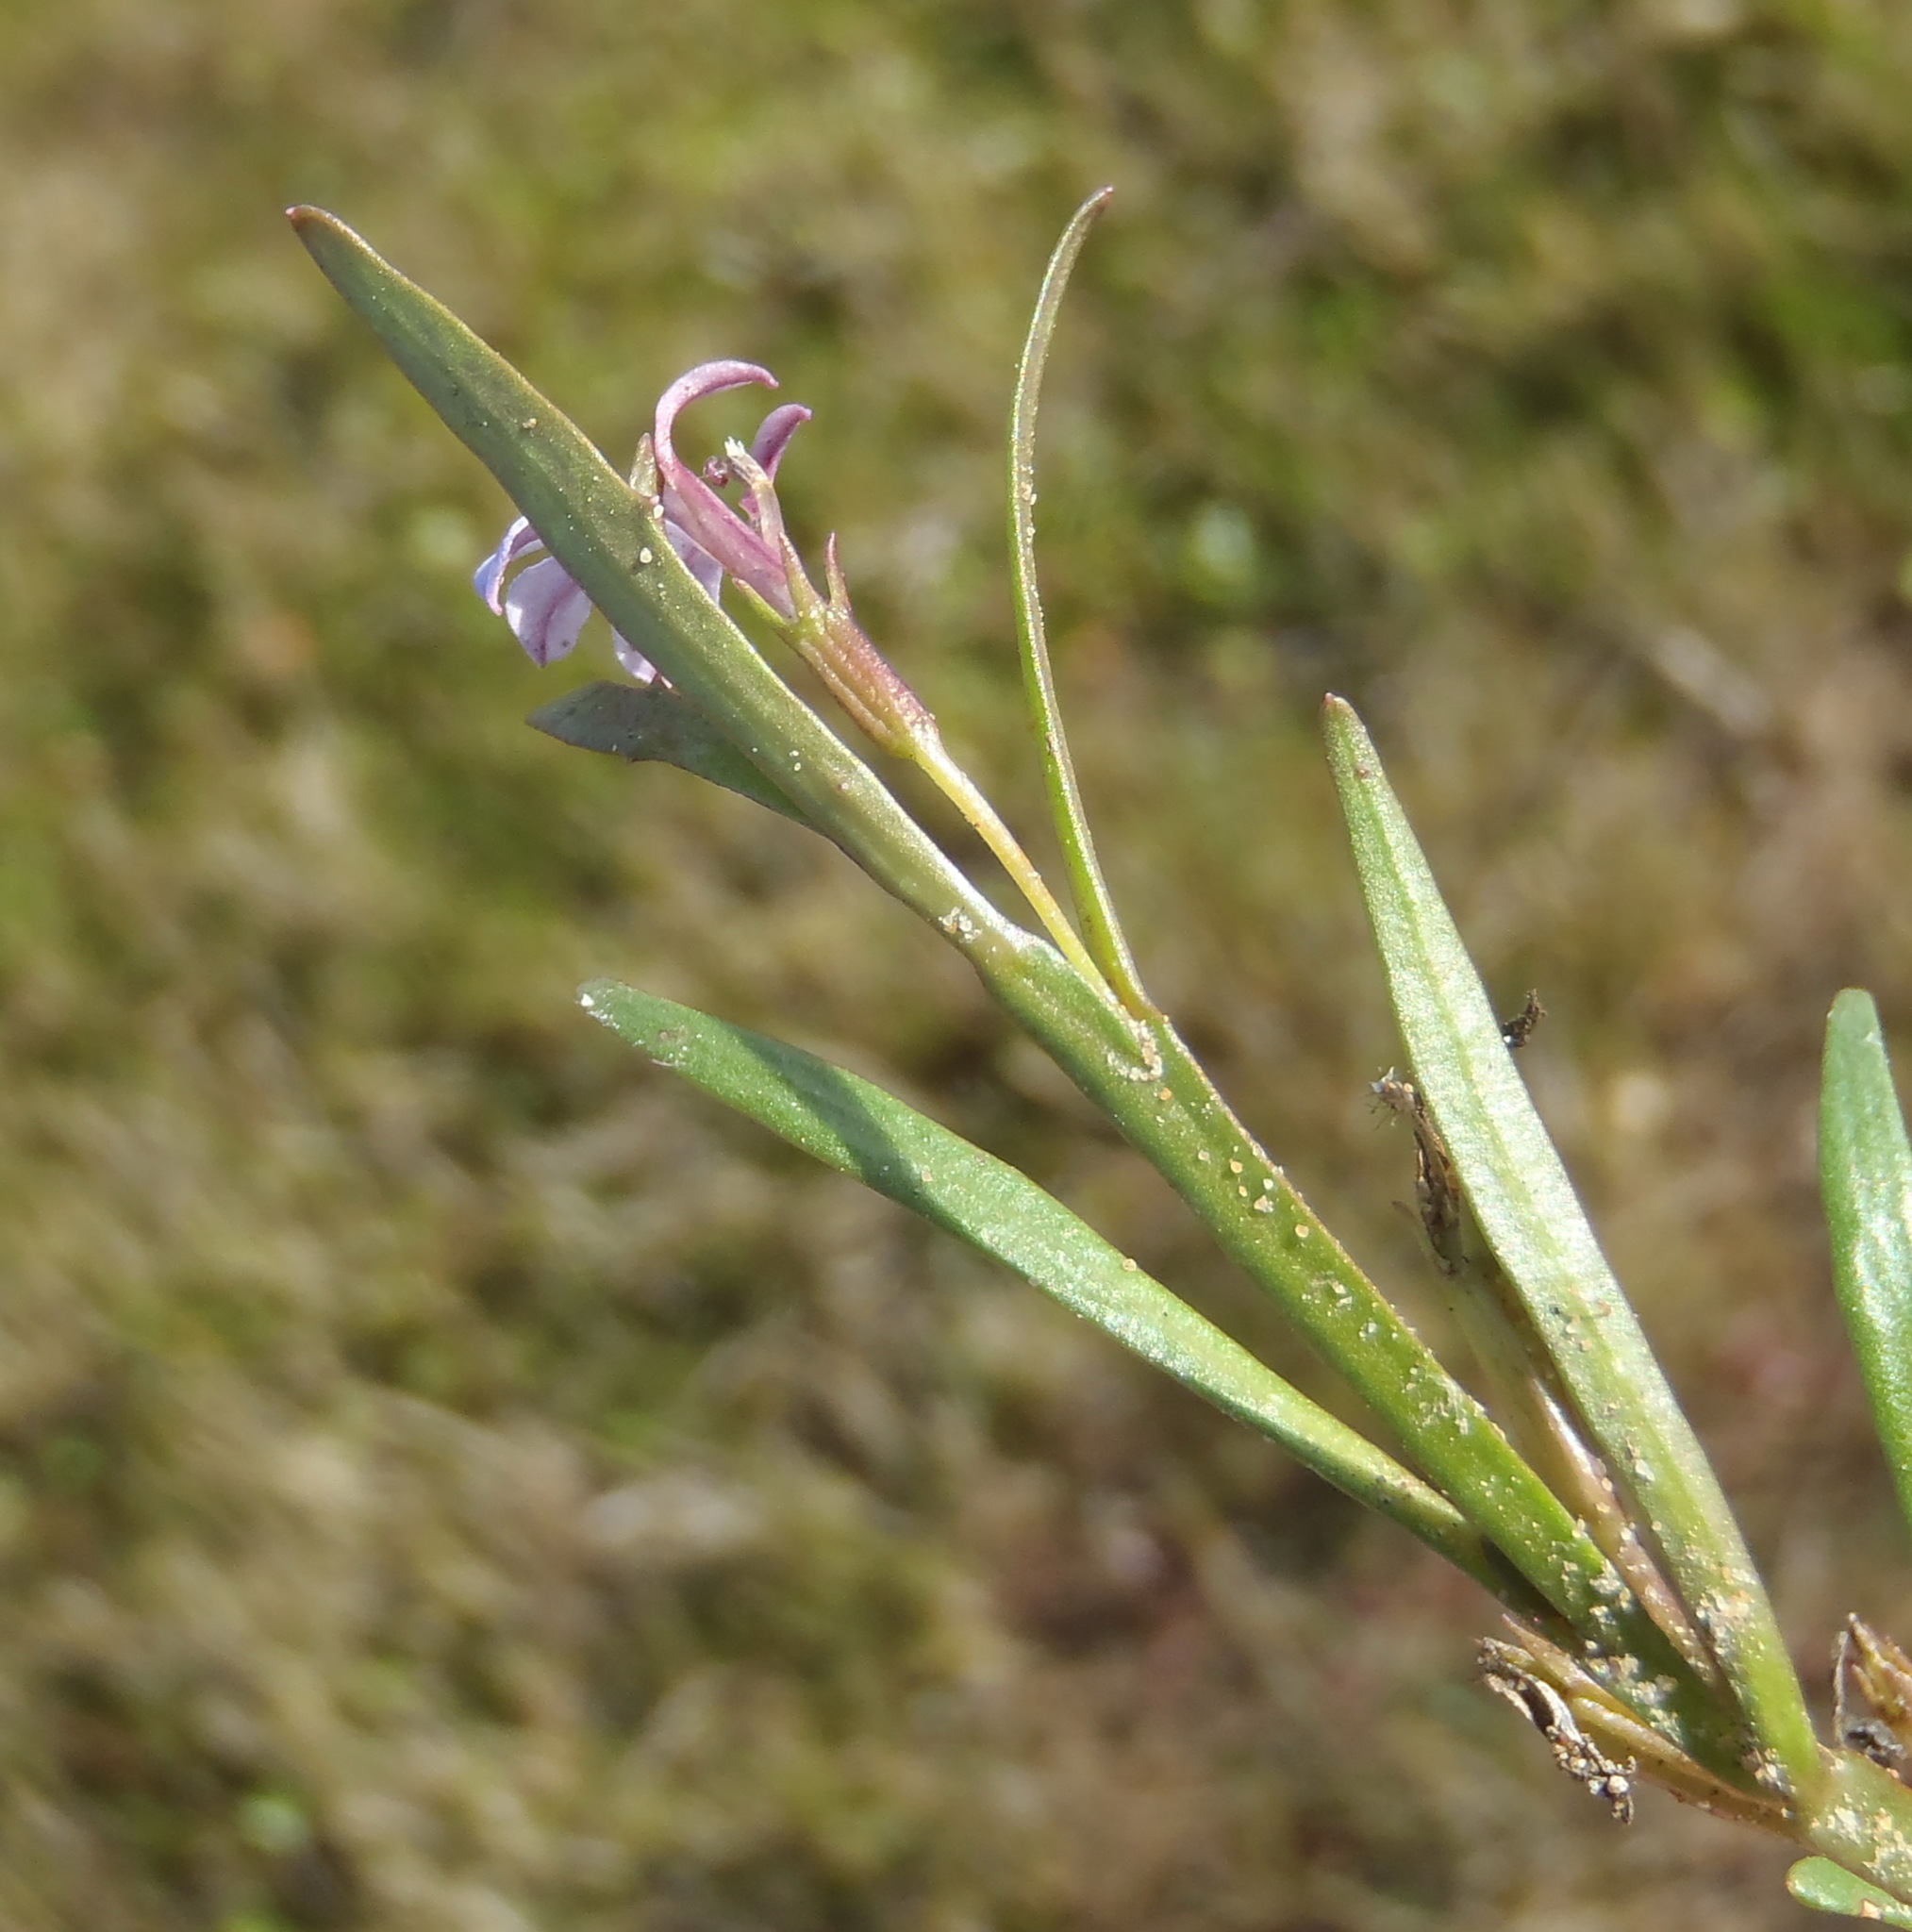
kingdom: Plantae
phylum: Tracheophyta
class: Magnoliopsida
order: Asterales
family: Campanulaceae
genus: Lobelia
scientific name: Lobelia anceps
